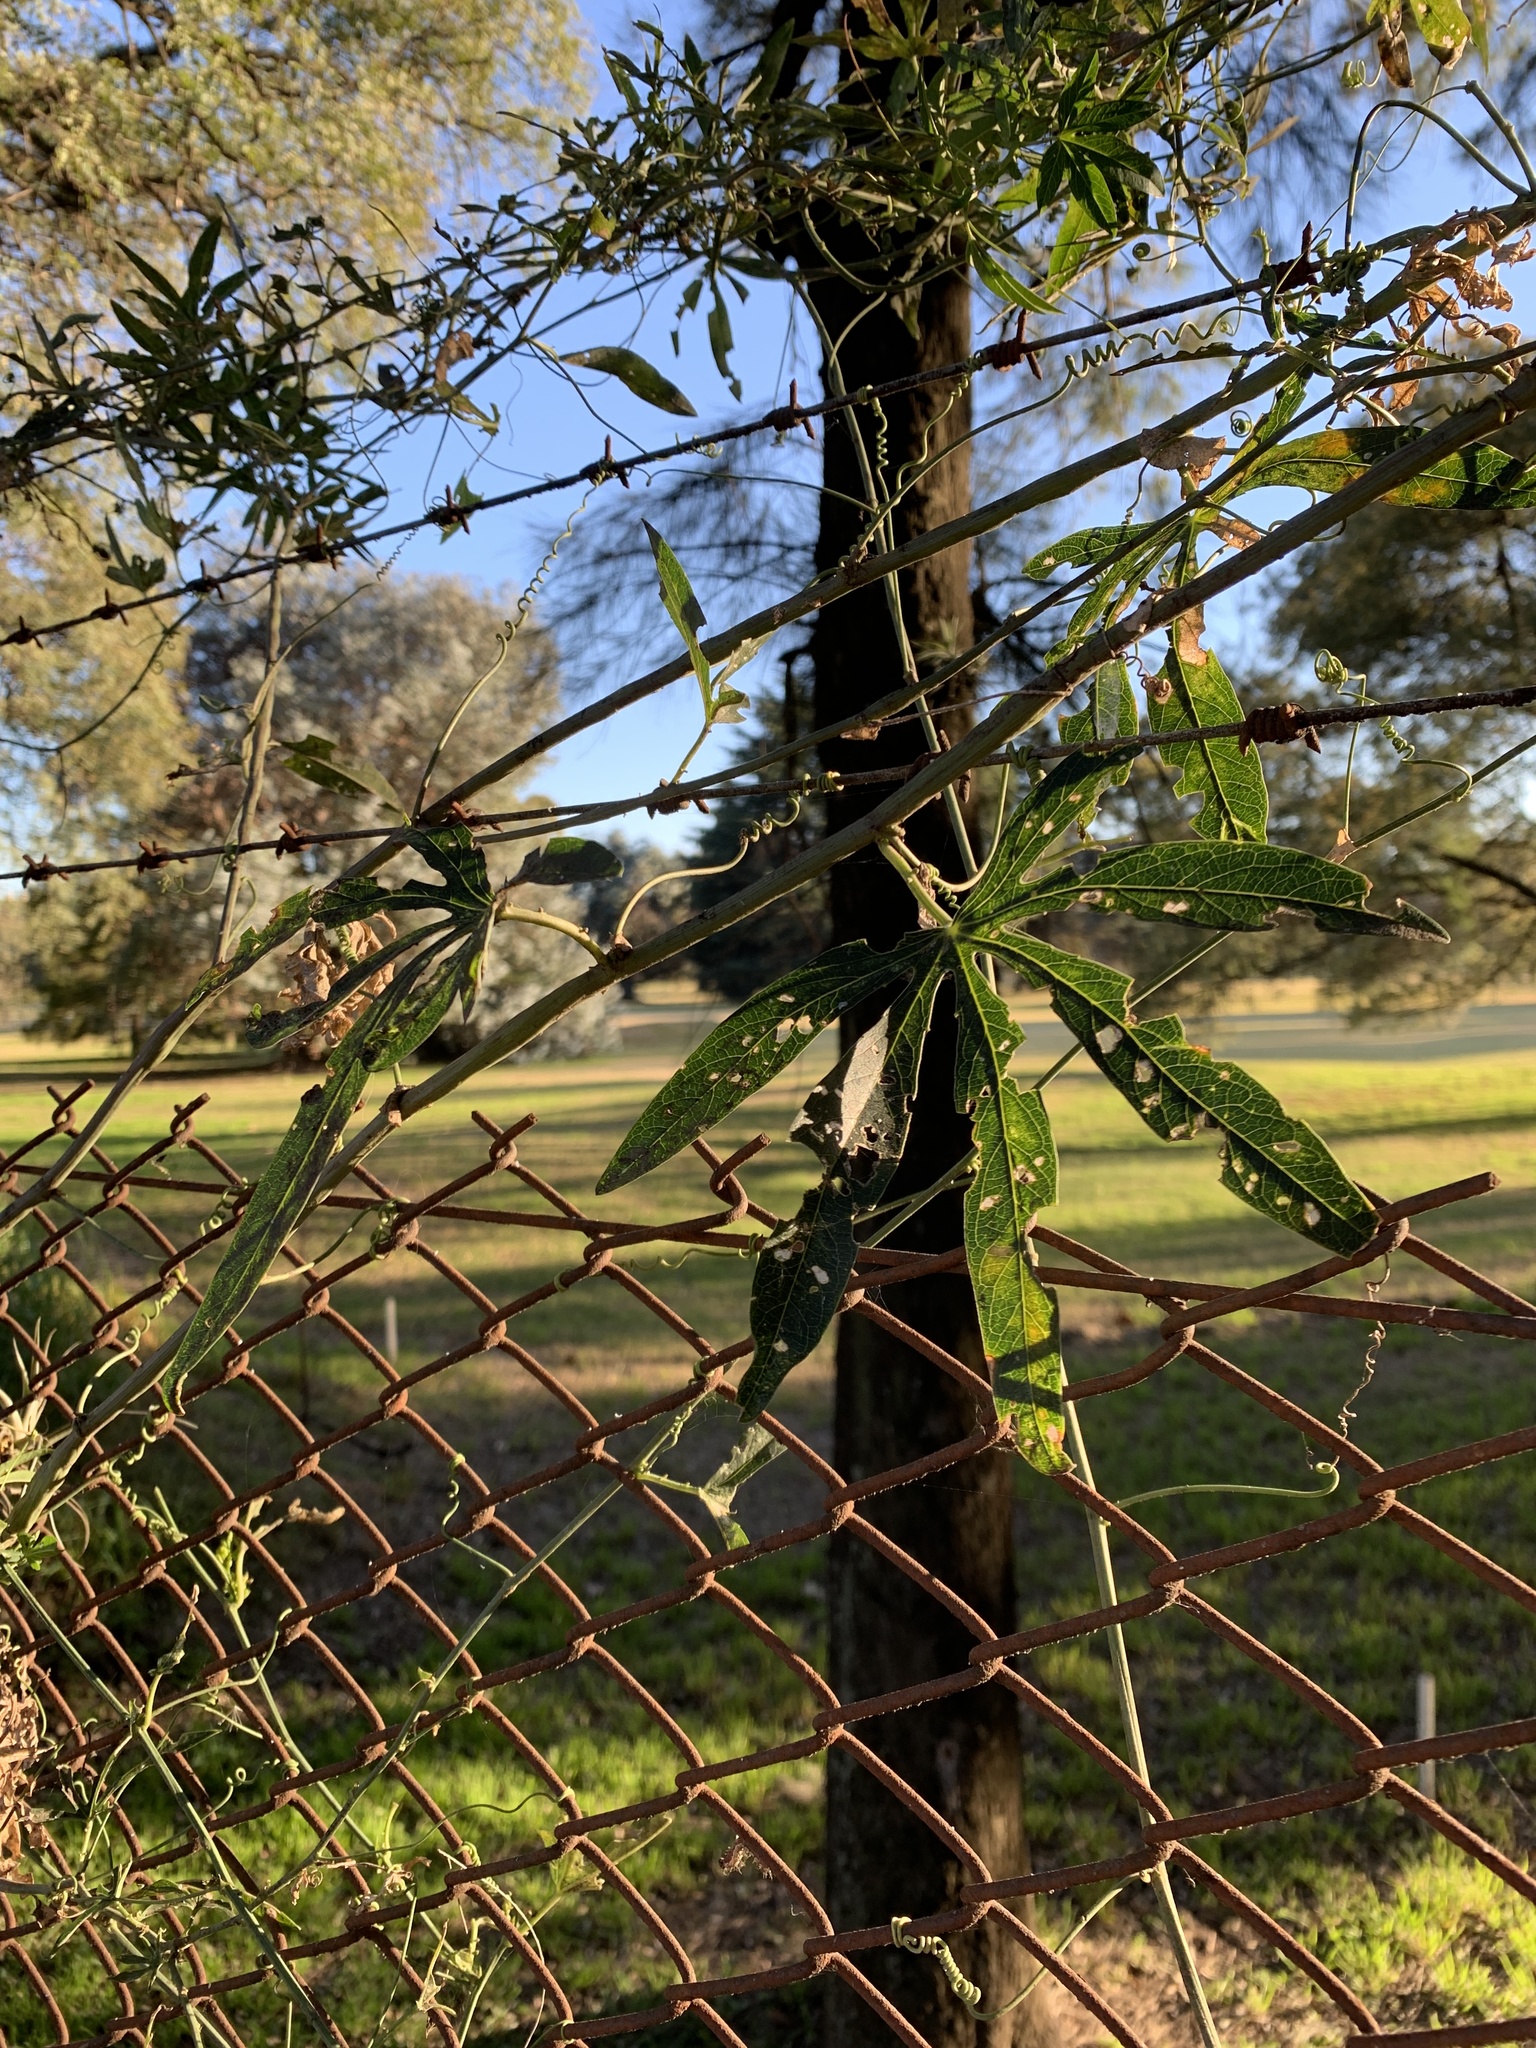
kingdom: Plantae
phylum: Tracheophyta
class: Magnoliopsida
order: Malpighiales
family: Passifloraceae
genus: Passiflora
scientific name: Passiflora caerulea
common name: Blue passionflower
